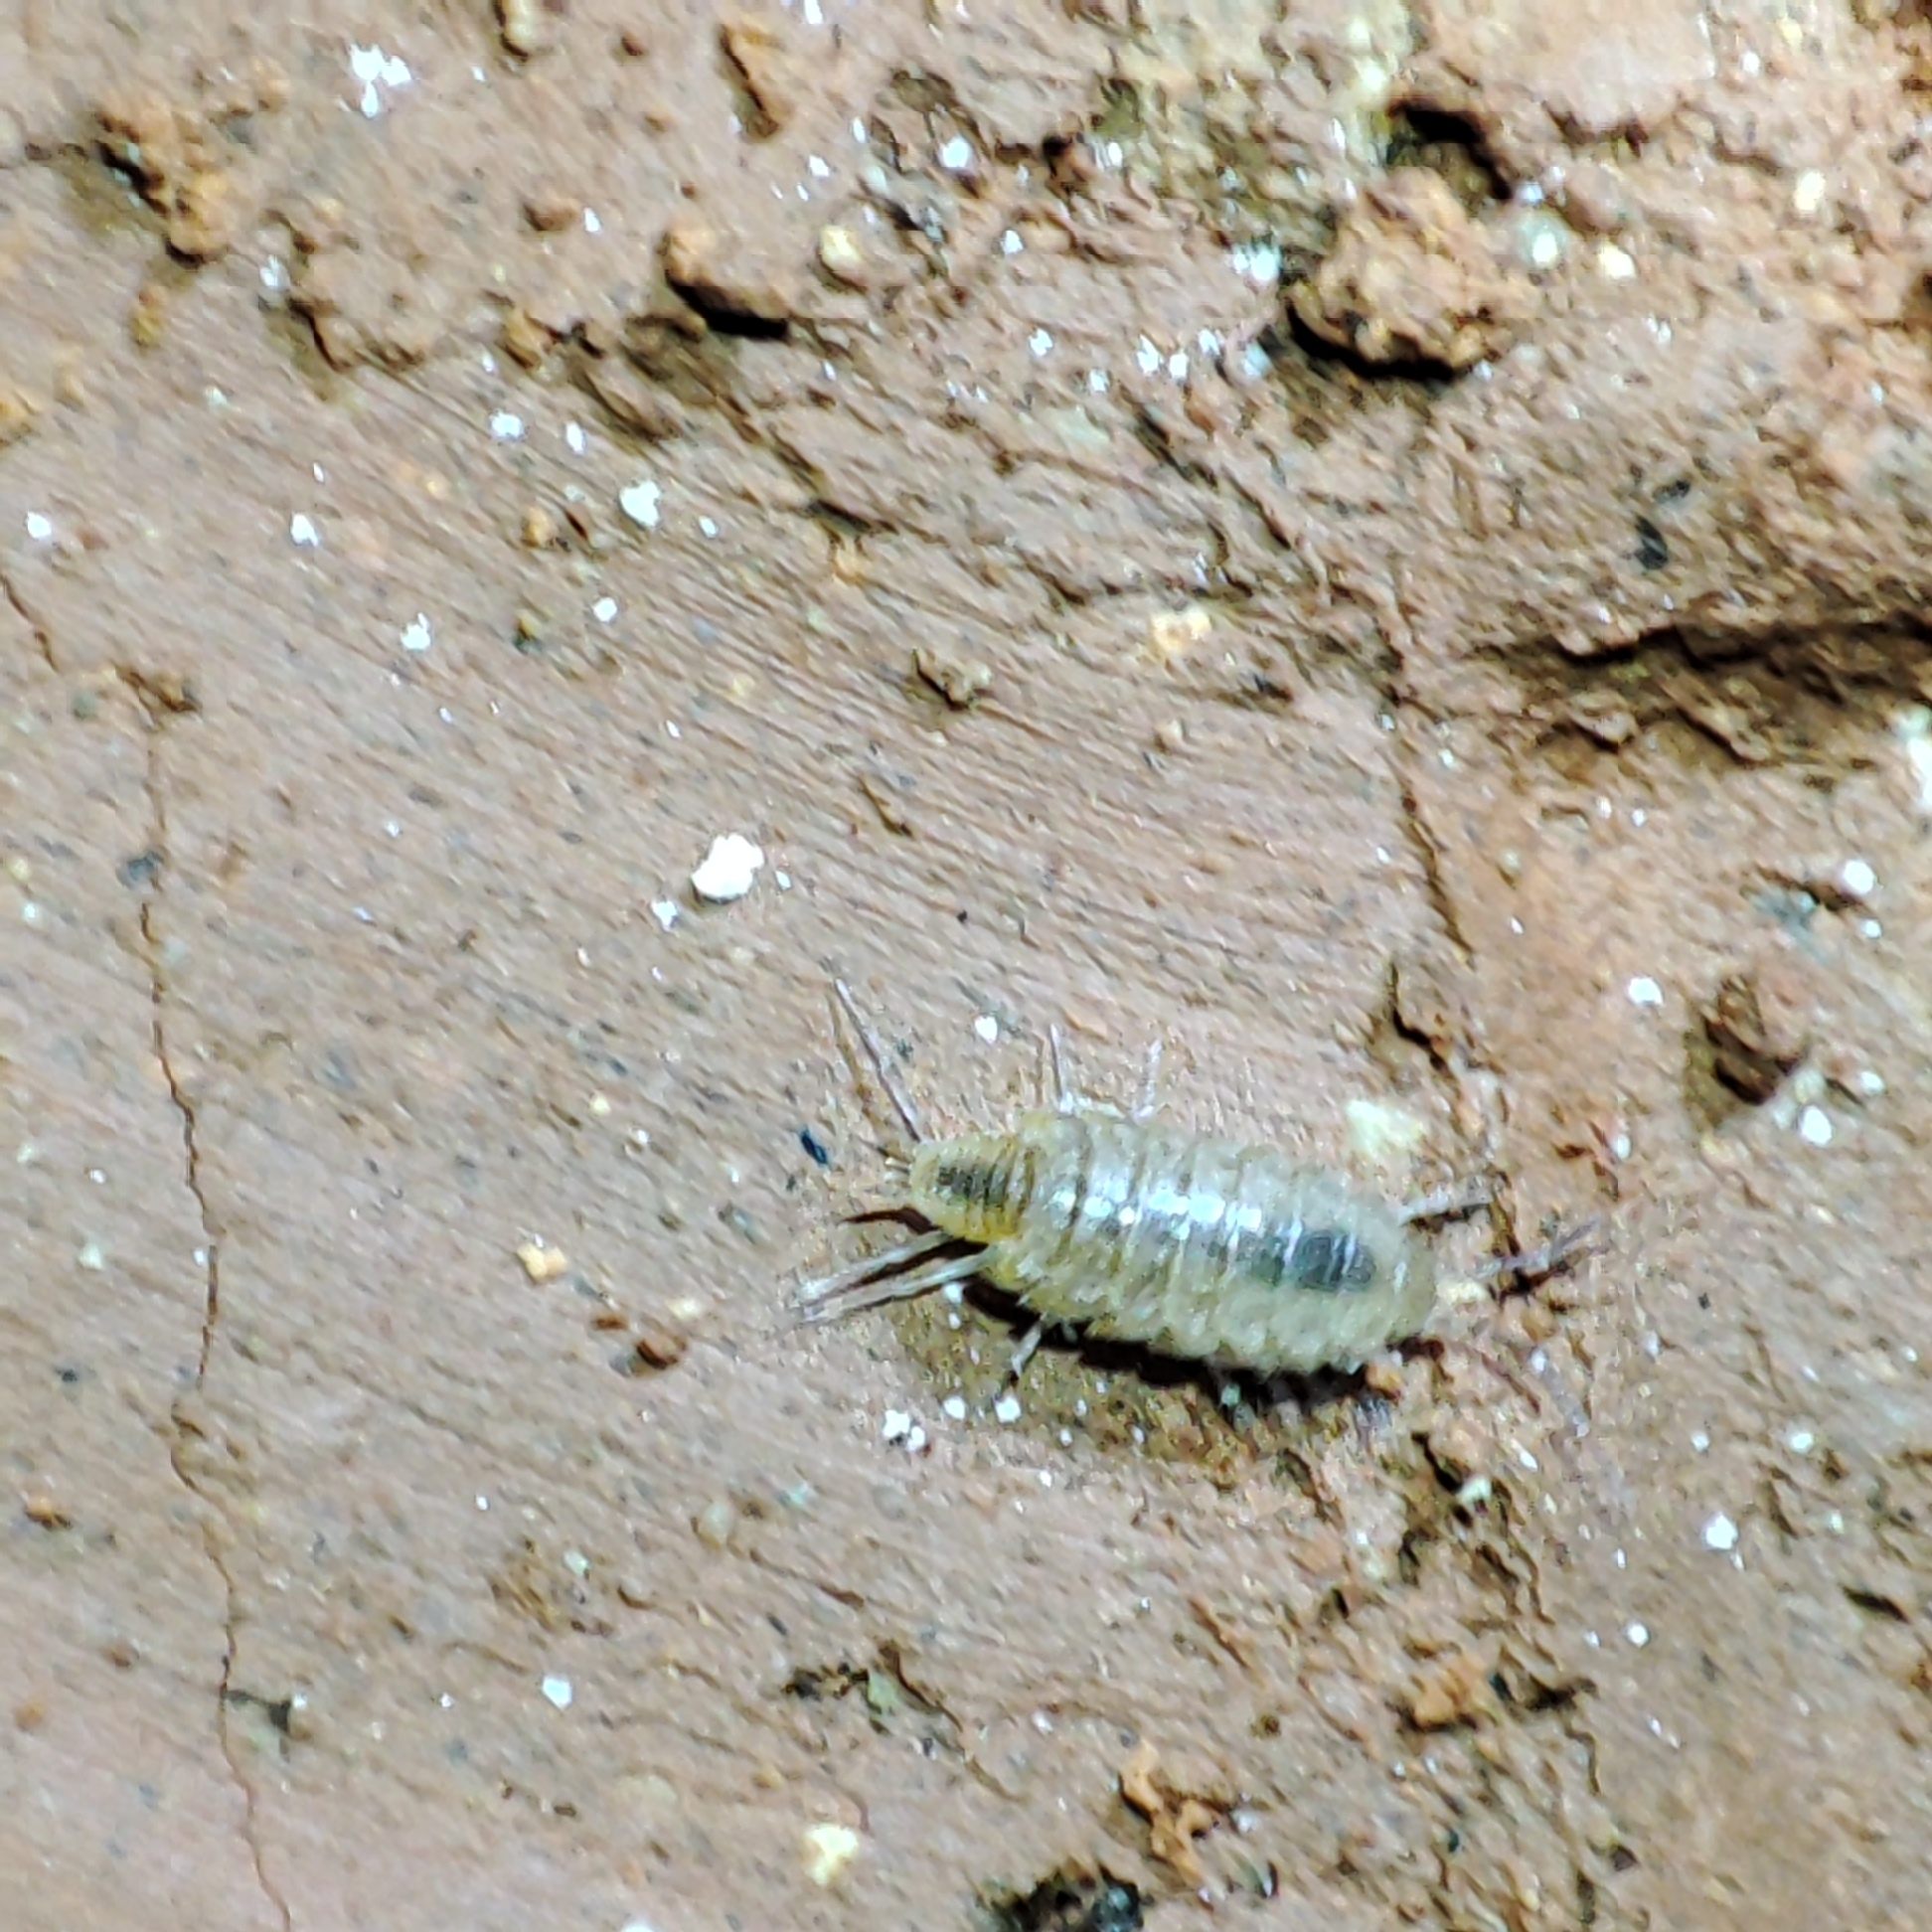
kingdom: Animalia
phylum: Arthropoda
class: Malacostraca
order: Isopoda
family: Philosciidae
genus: Chaetophiloscia
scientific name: Chaetophiloscia cellaria
